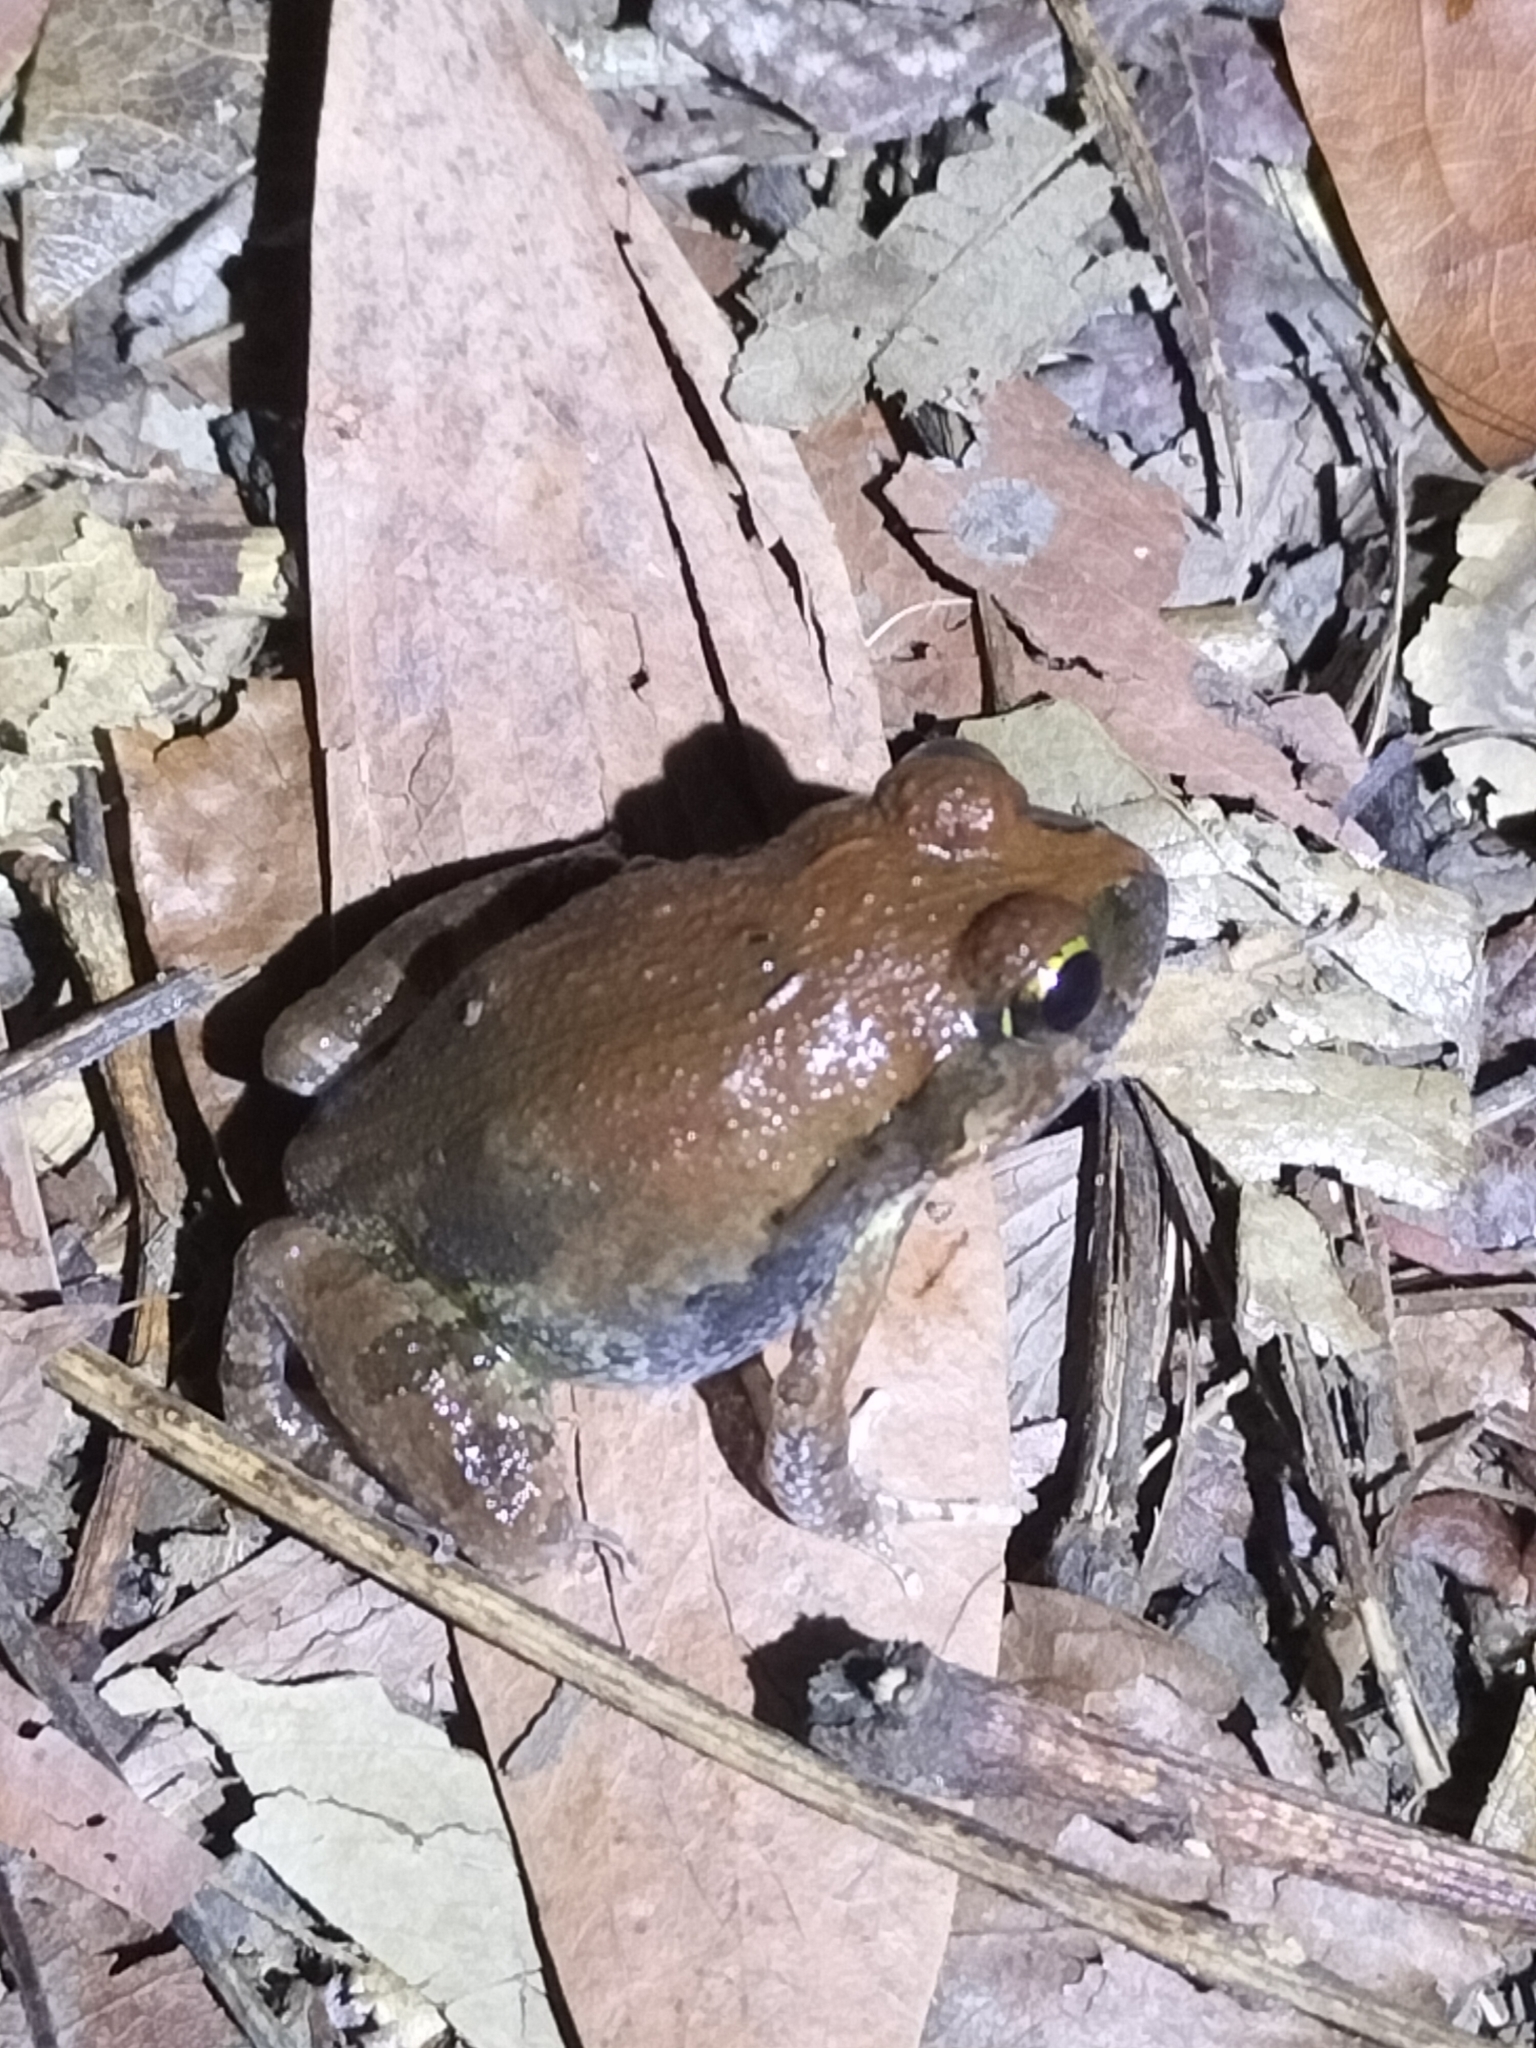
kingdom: Animalia
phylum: Chordata
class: Amphibia
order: Anura
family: Limnodynastidae
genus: Platyplectrum
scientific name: Platyplectrum ornatum
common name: Ornate burrowing frog
